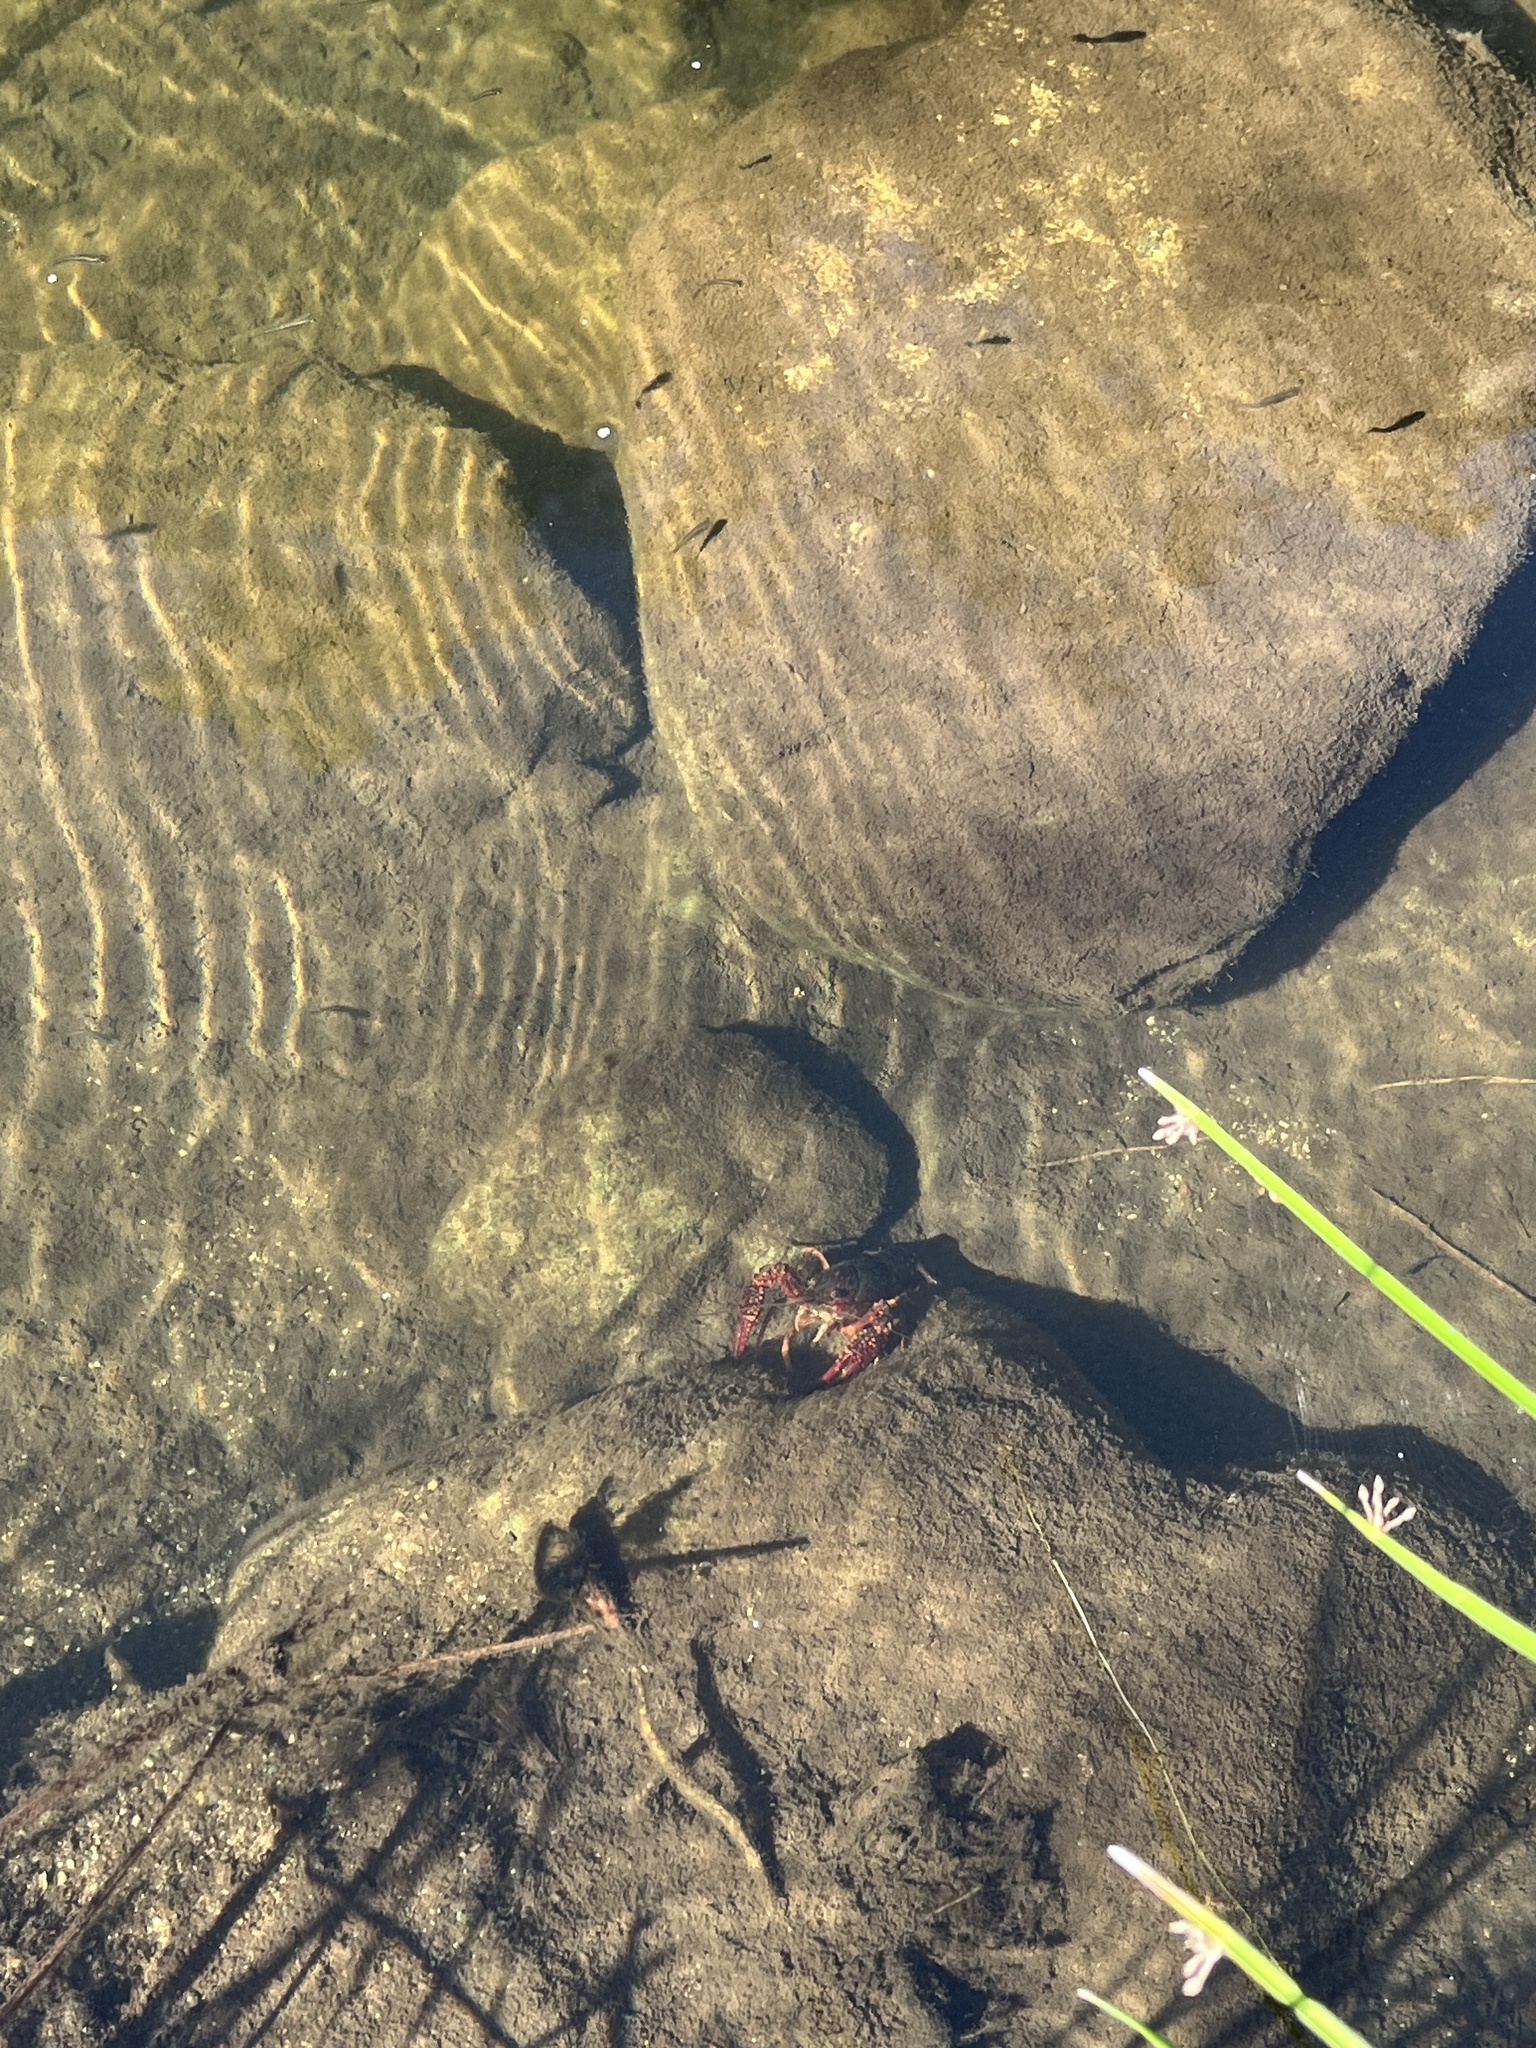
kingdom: Animalia
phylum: Arthropoda
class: Malacostraca
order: Decapoda
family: Cambaridae
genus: Procambarus
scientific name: Procambarus clarkii
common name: Red swamp crayfish
